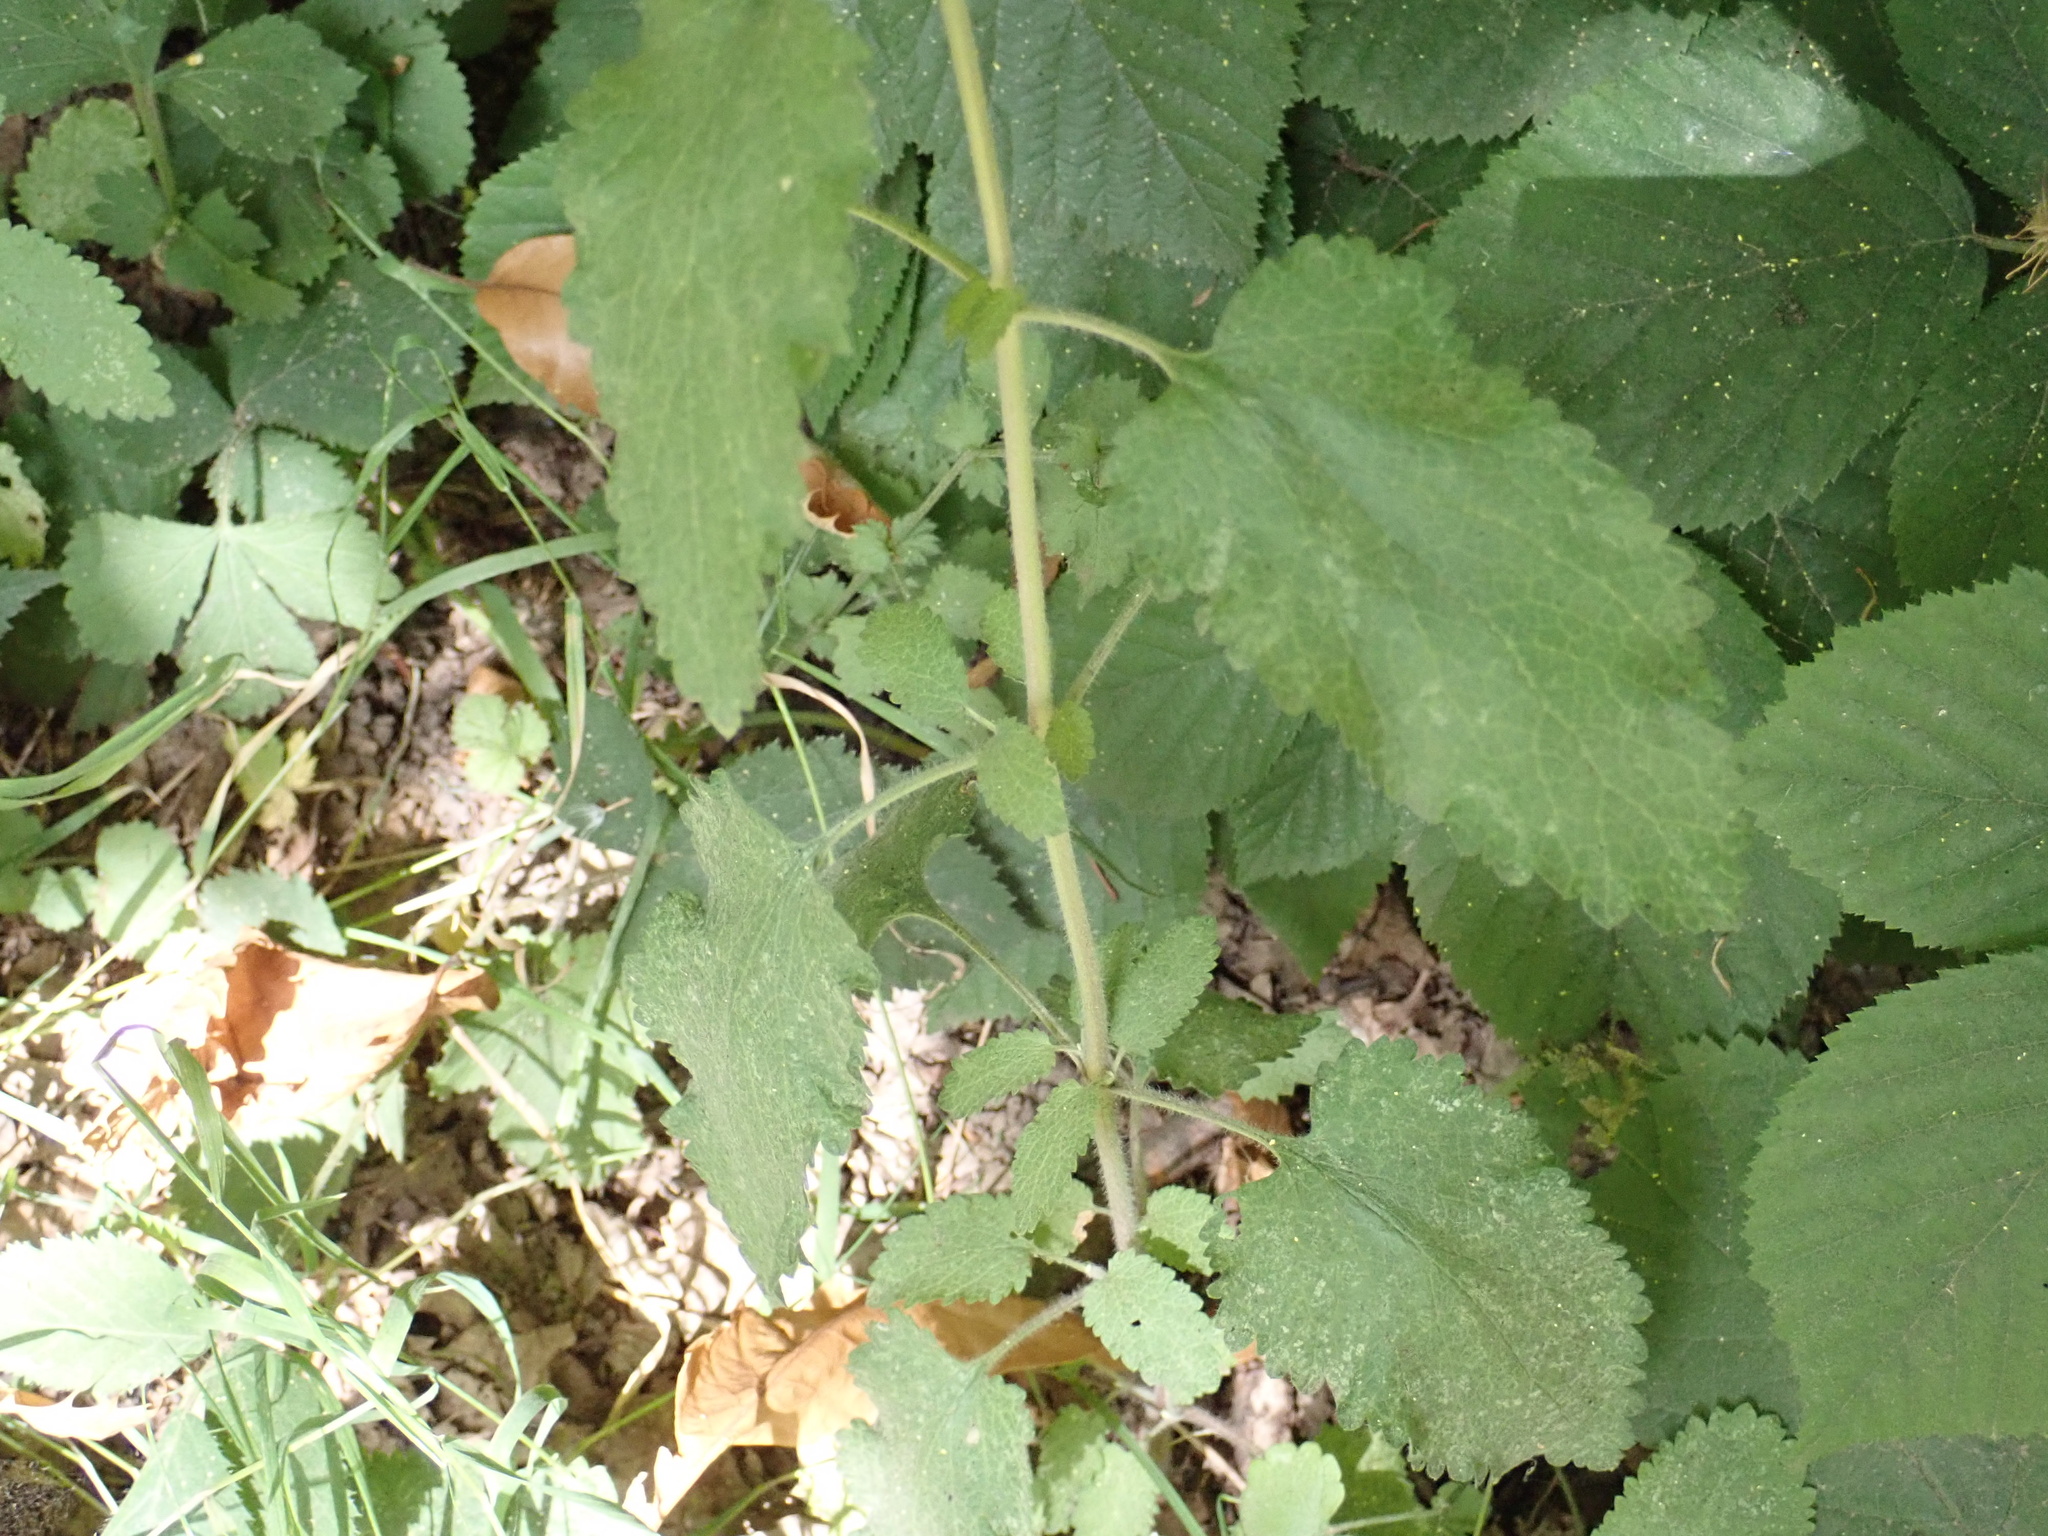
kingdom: Plantae
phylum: Tracheophyta
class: Magnoliopsida
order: Lamiales
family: Lamiaceae
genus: Teucrium
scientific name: Teucrium scorodonia
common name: Woodland germander
